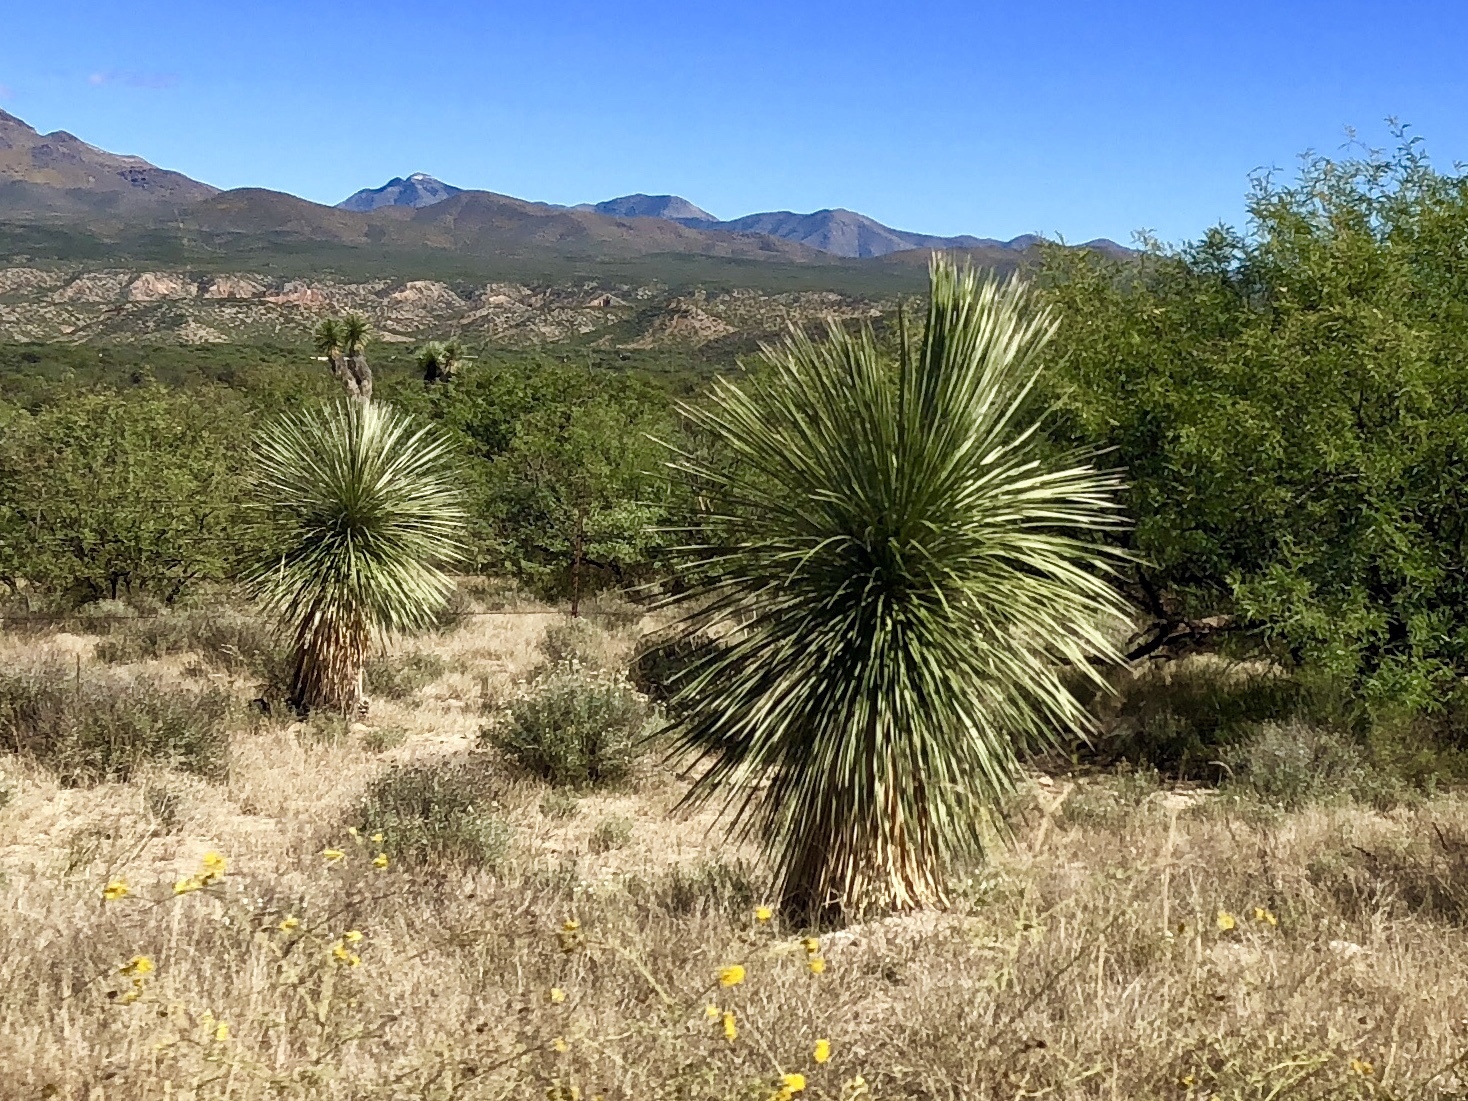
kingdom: Plantae
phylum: Tracheophyta
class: Liliopsida
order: Asparagales
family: Asparagaceae
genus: Yucca
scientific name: Yucca elata
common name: Palmella
